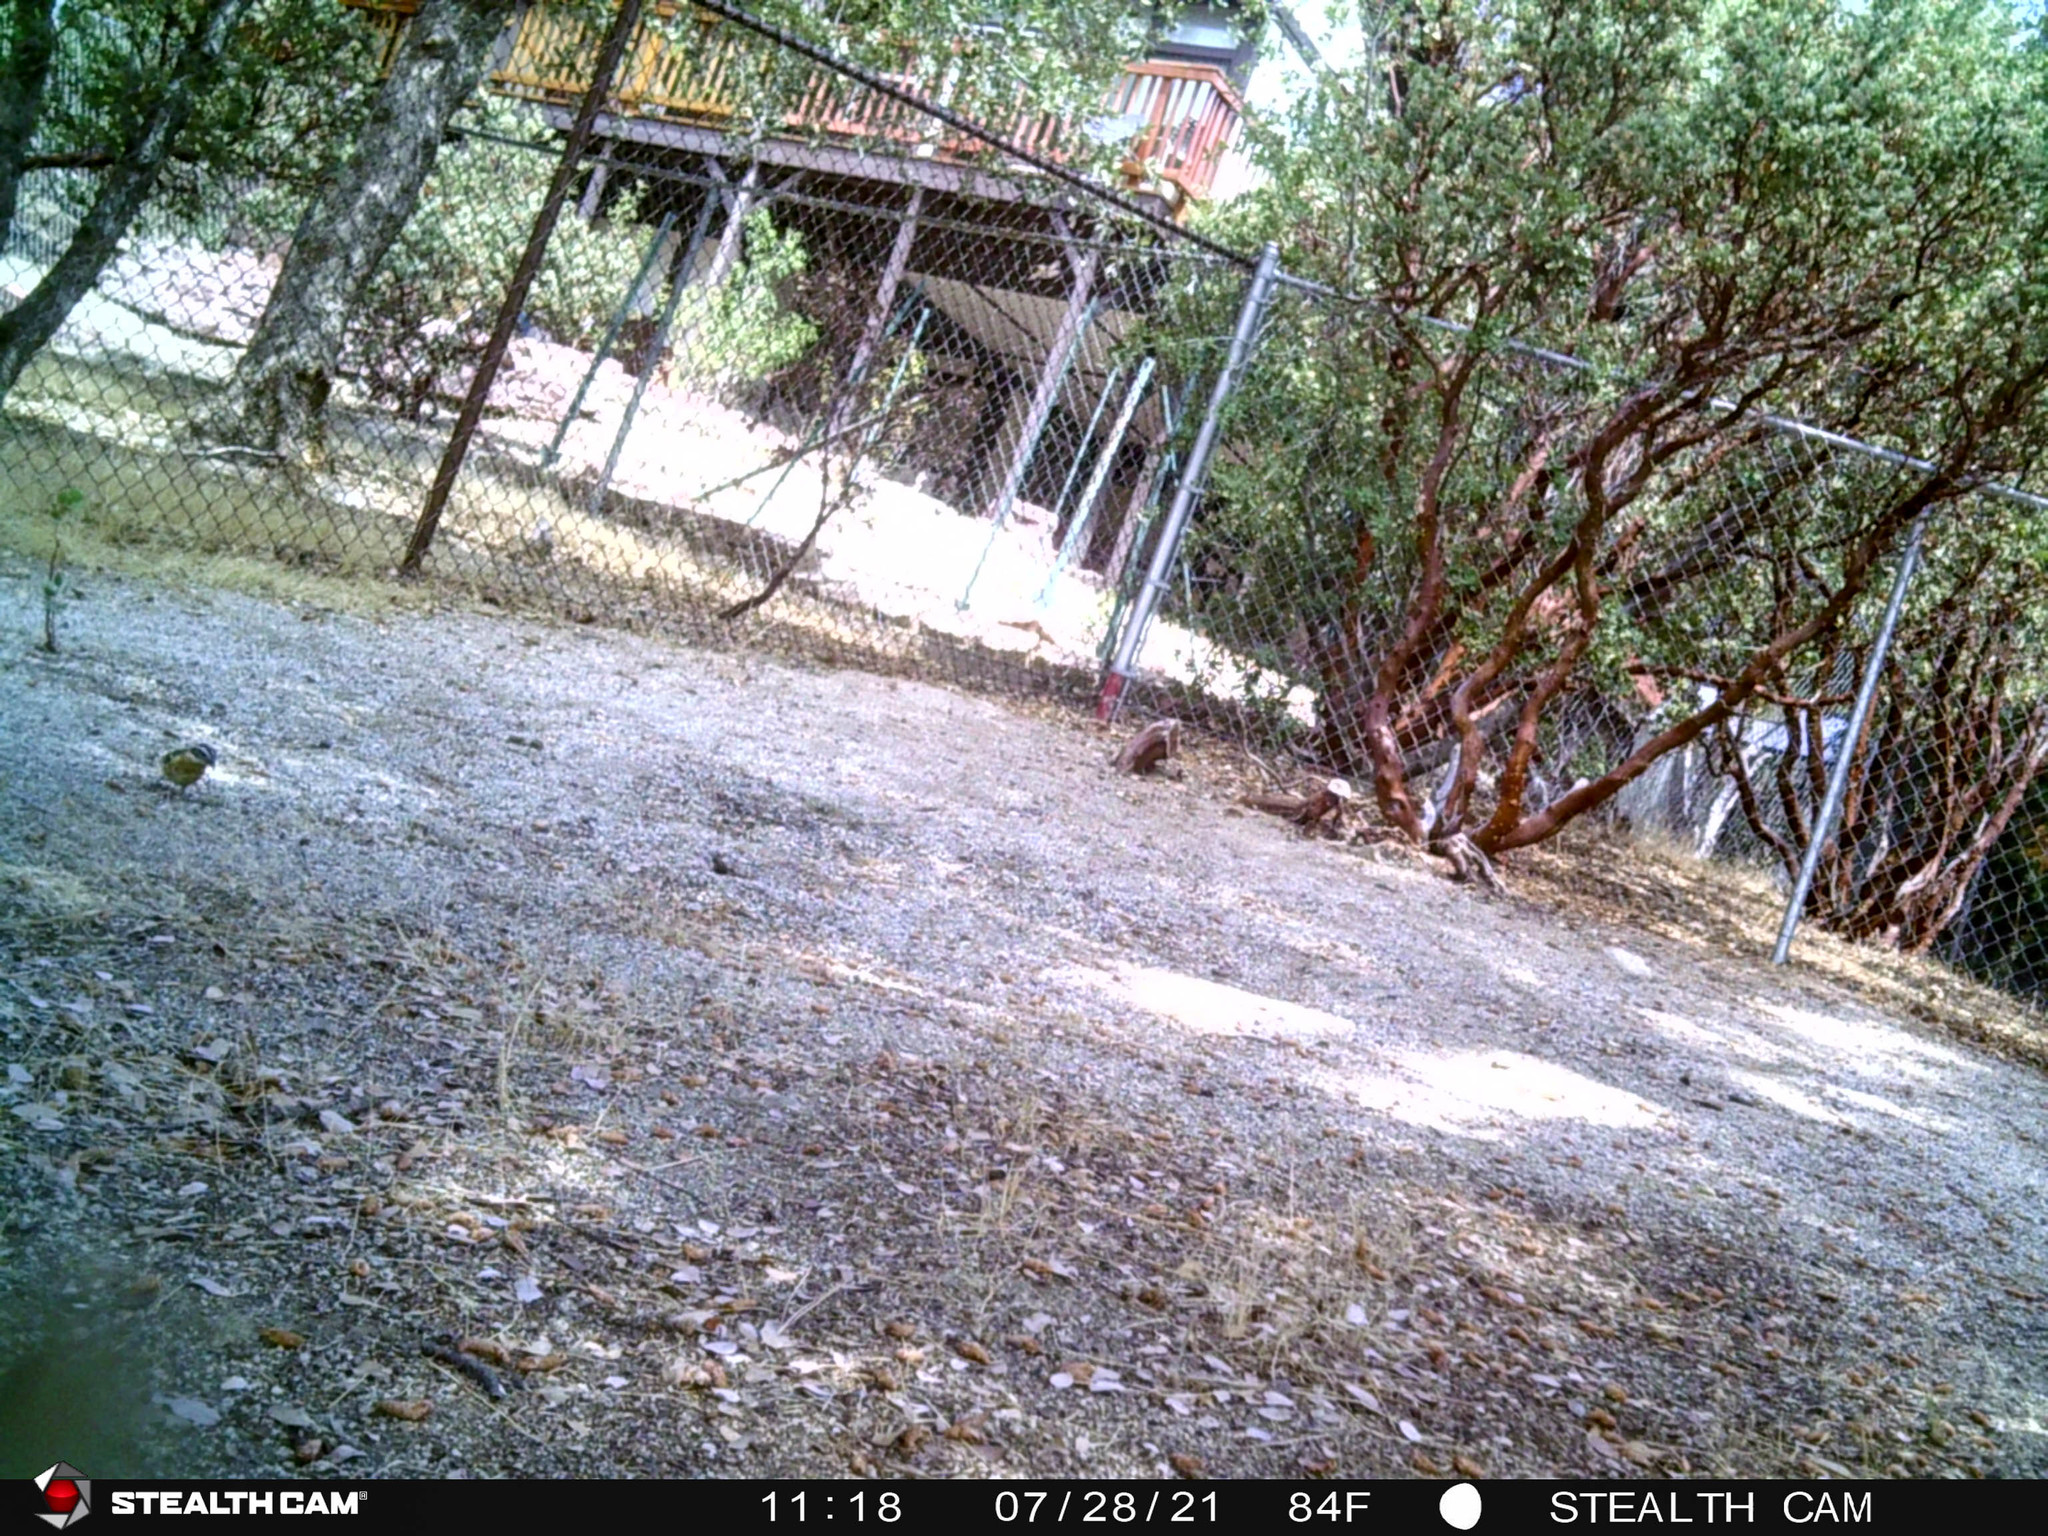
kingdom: Animalia
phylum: Chordata
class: Aves
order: Passeriformes
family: Cardinalidae
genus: Pheucticus
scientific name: Pheucticus melanocephalus
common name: Black-headed grosbeak
